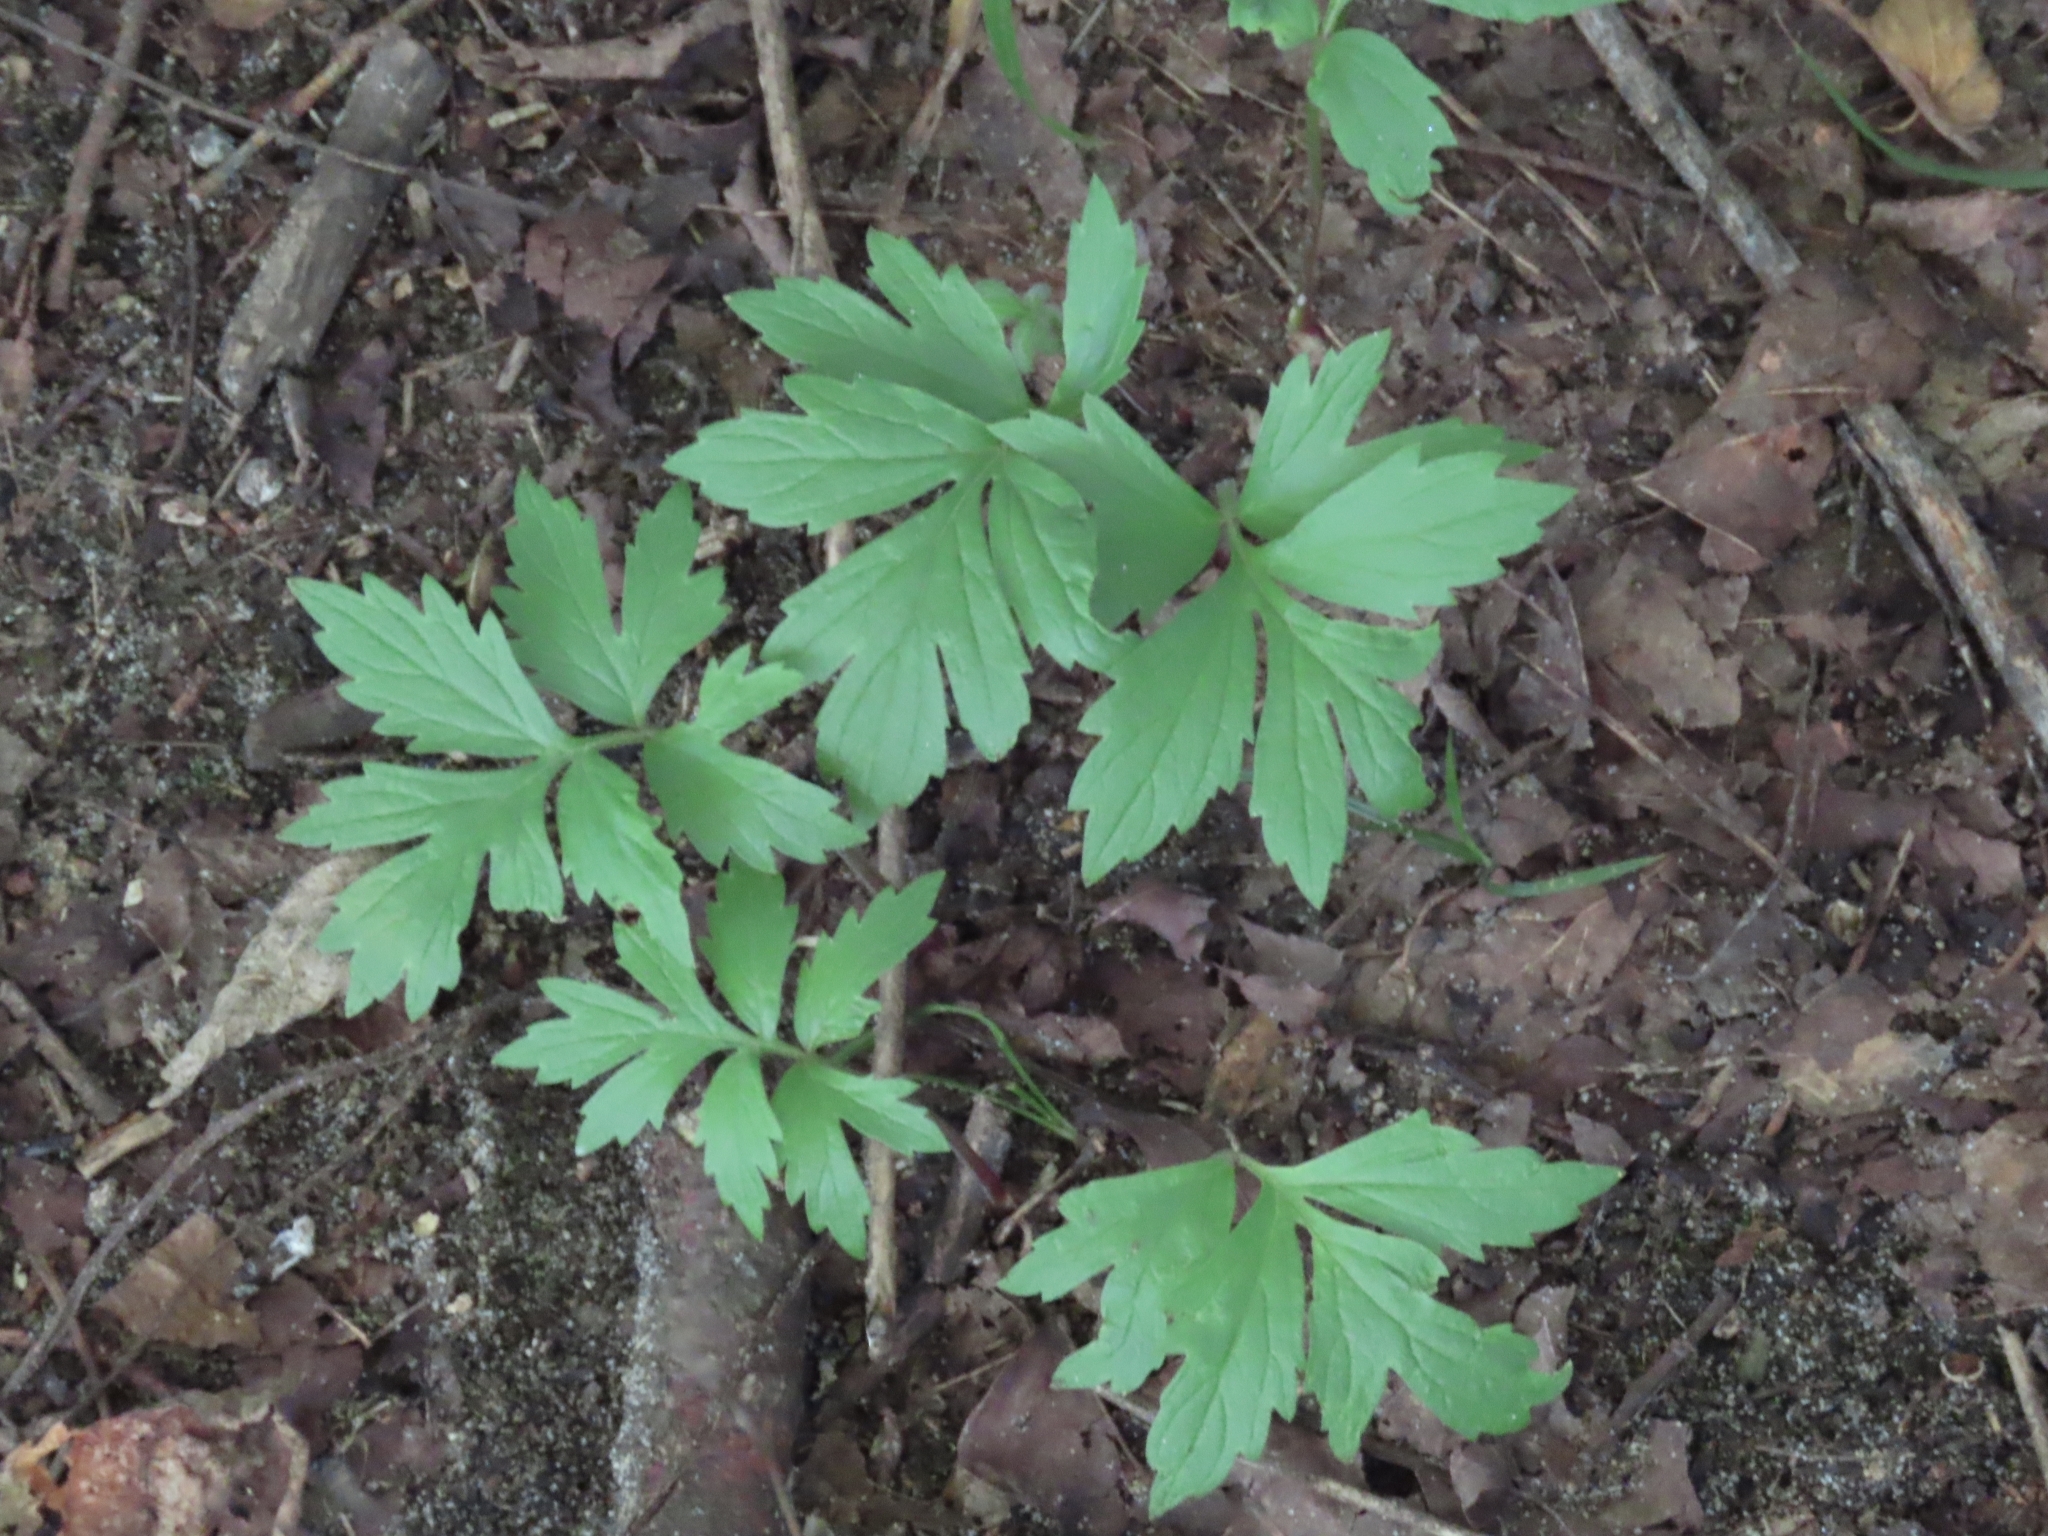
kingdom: Plantae
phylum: Tracheophyta
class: Magnoliopsida
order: Boraginales
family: Hydrophyllaceae
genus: Hydrophyllum
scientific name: Hydrophyllum virginianum
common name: Virginia waterleaf
